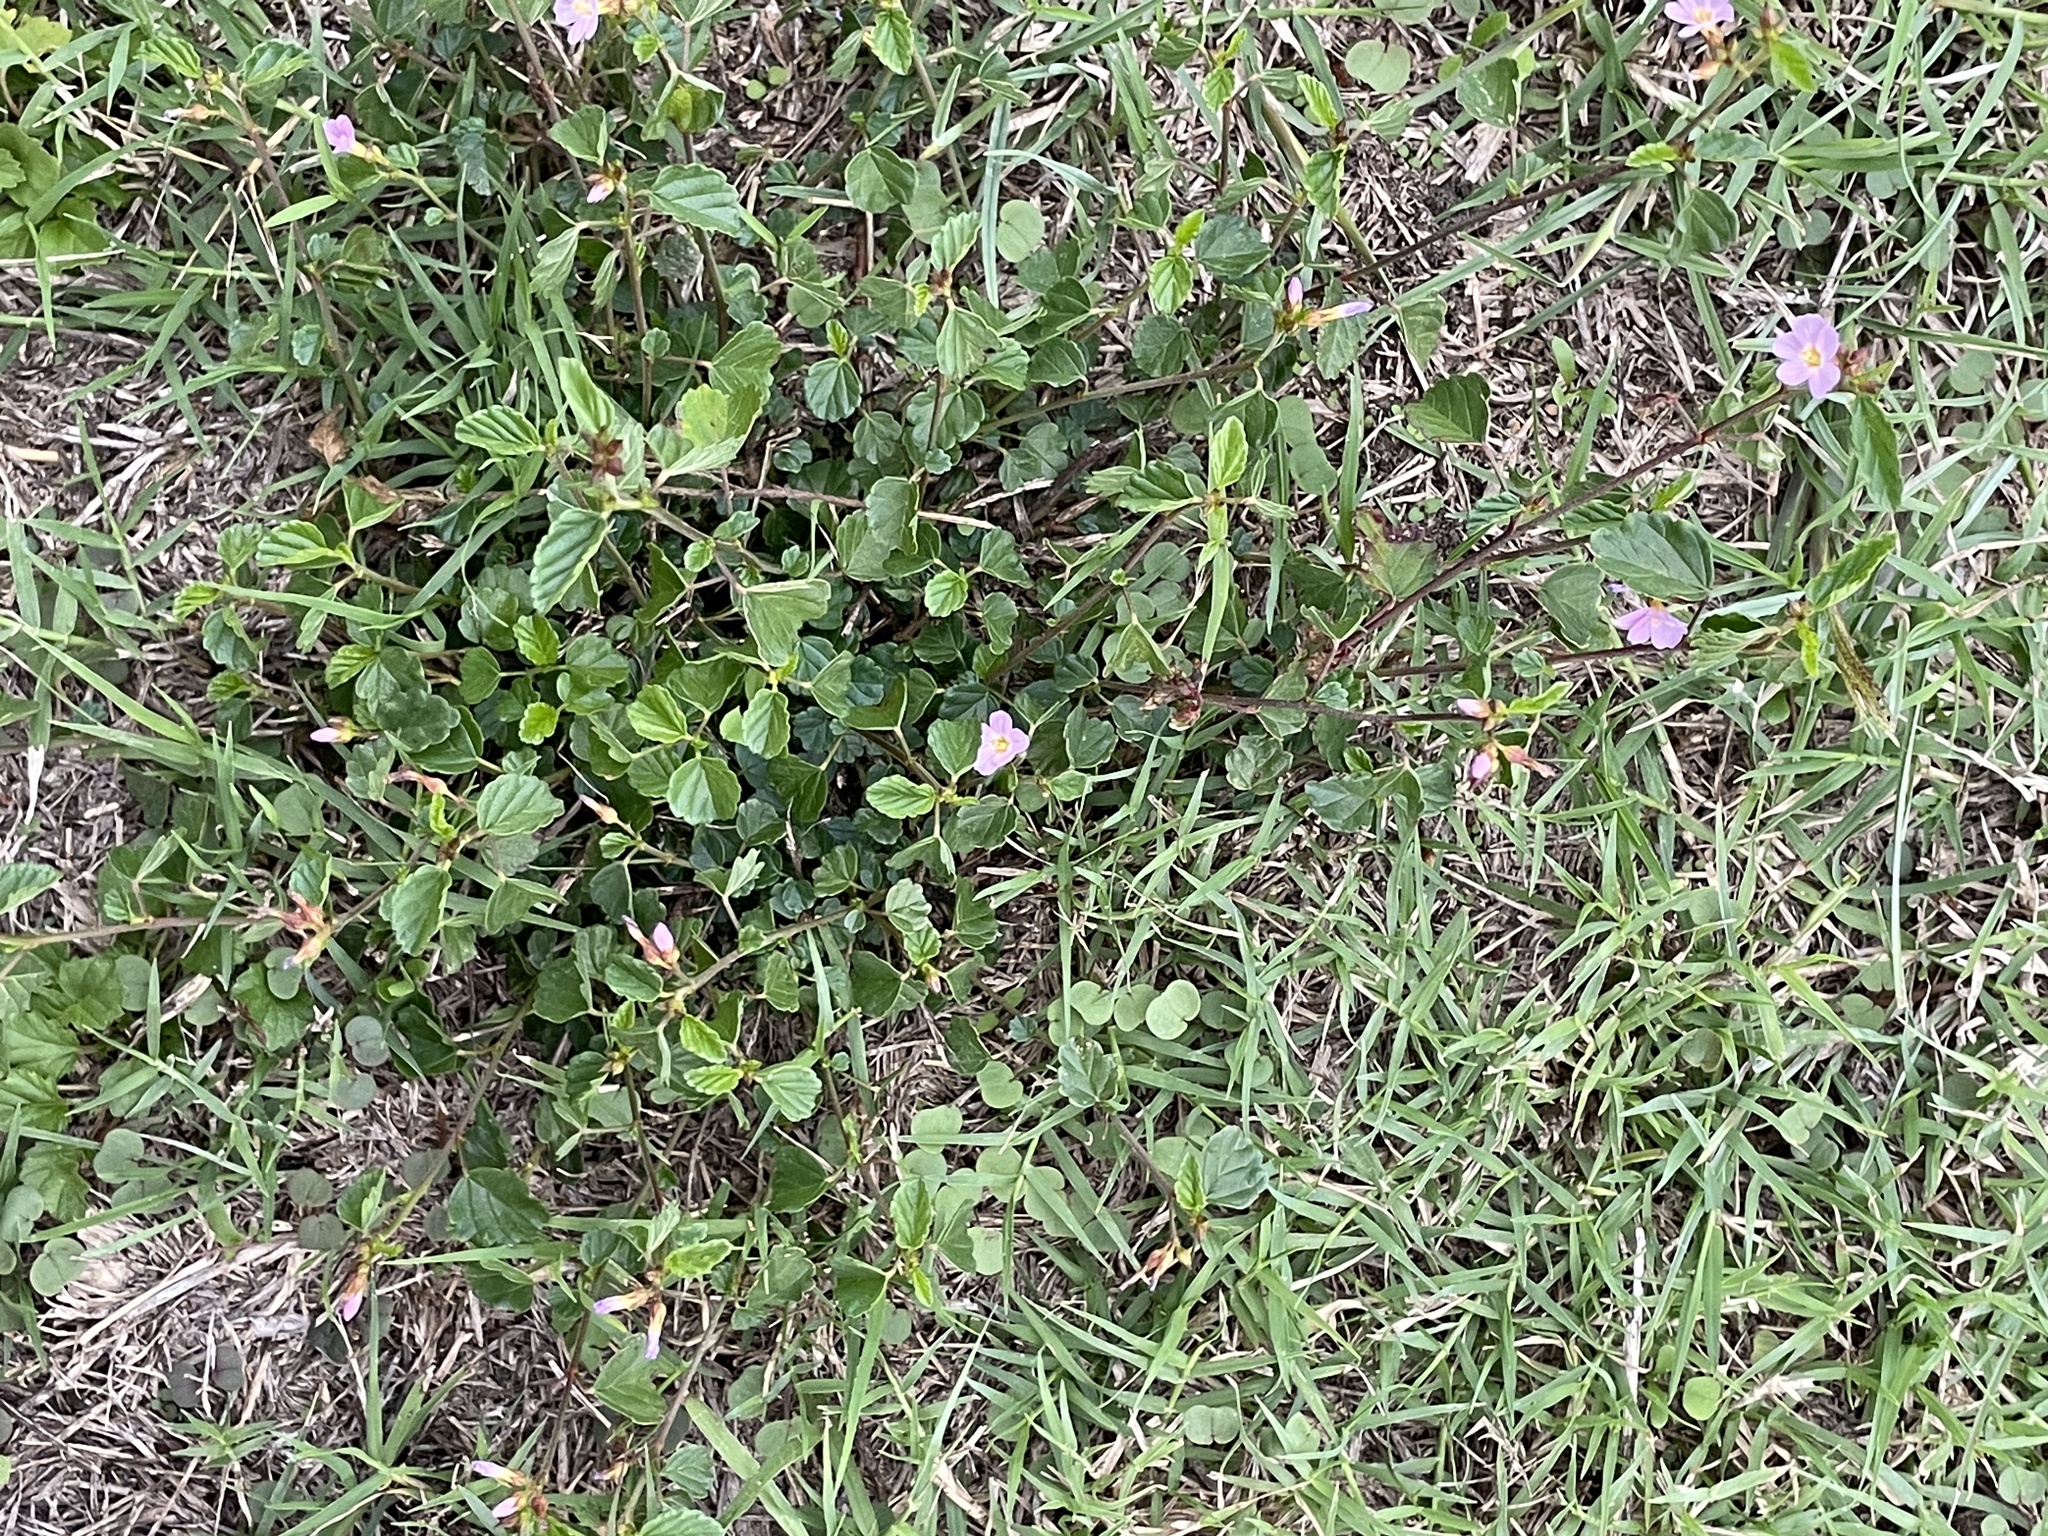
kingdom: Plantae
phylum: Tracheophyta
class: Magnoliopsida
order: Malvales
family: Malvaceae
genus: Melochia
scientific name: Melochia pyramidata
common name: Pyramidflower
